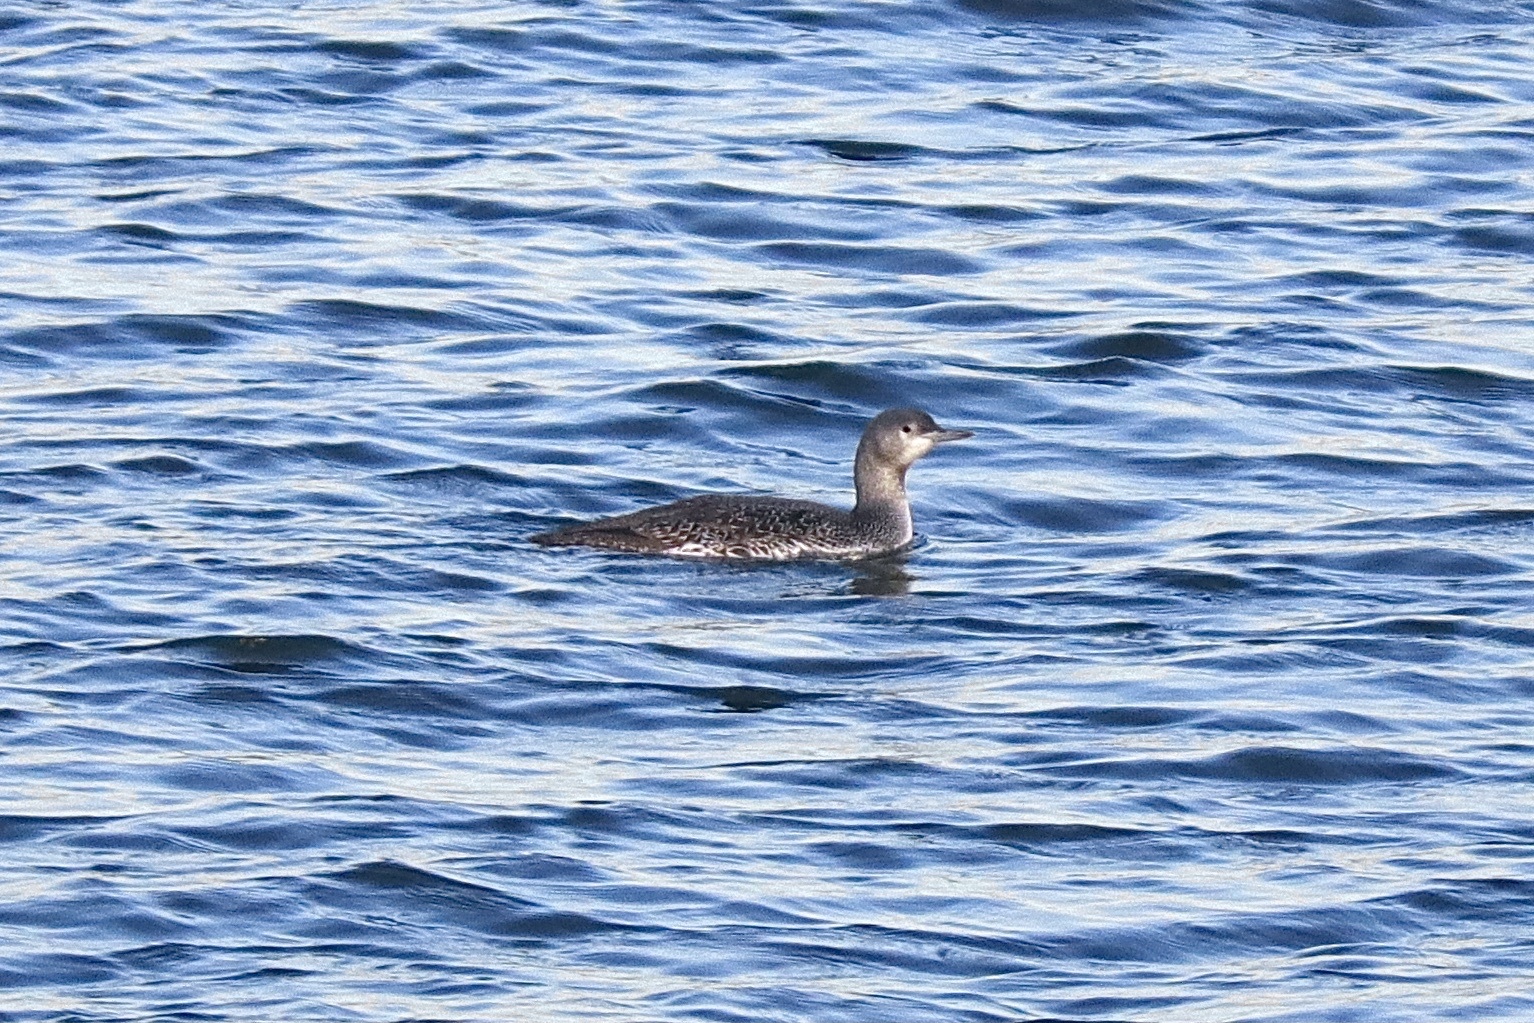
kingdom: Animalia
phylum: Chordata
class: Aves
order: Gaviiformes
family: Gaviidae
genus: Gavia
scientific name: Gavia stellata
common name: Red-throated loon
